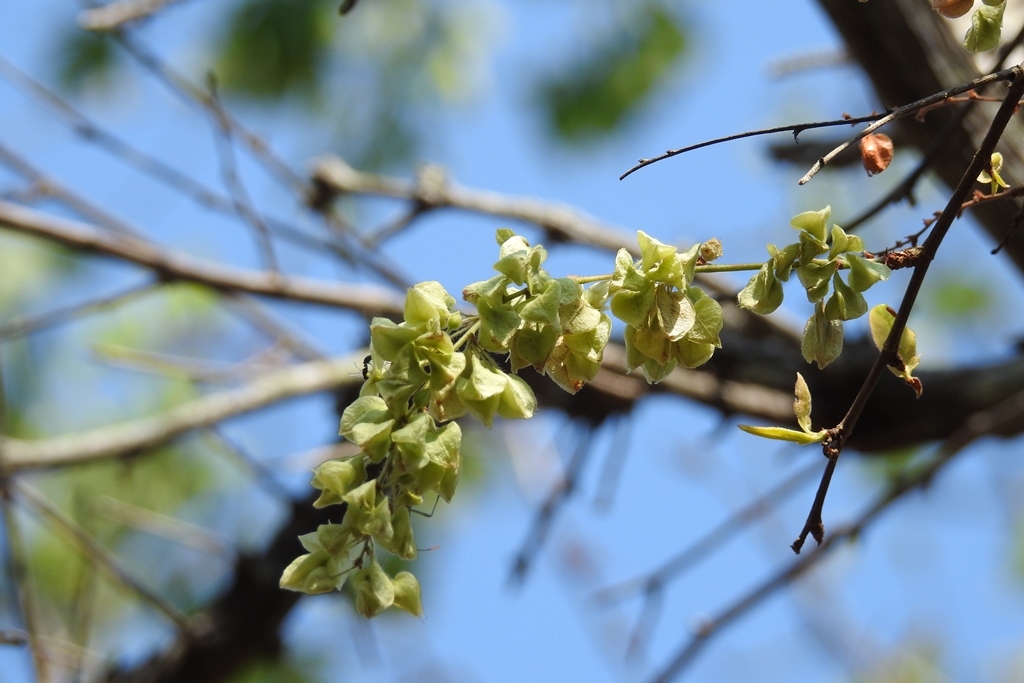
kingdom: Plantae
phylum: Tracheophyta
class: Magnoliopsida
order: Caryophyllales
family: Polygonaceae
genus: Gymnopodium
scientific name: Gymnopodium floribundum
